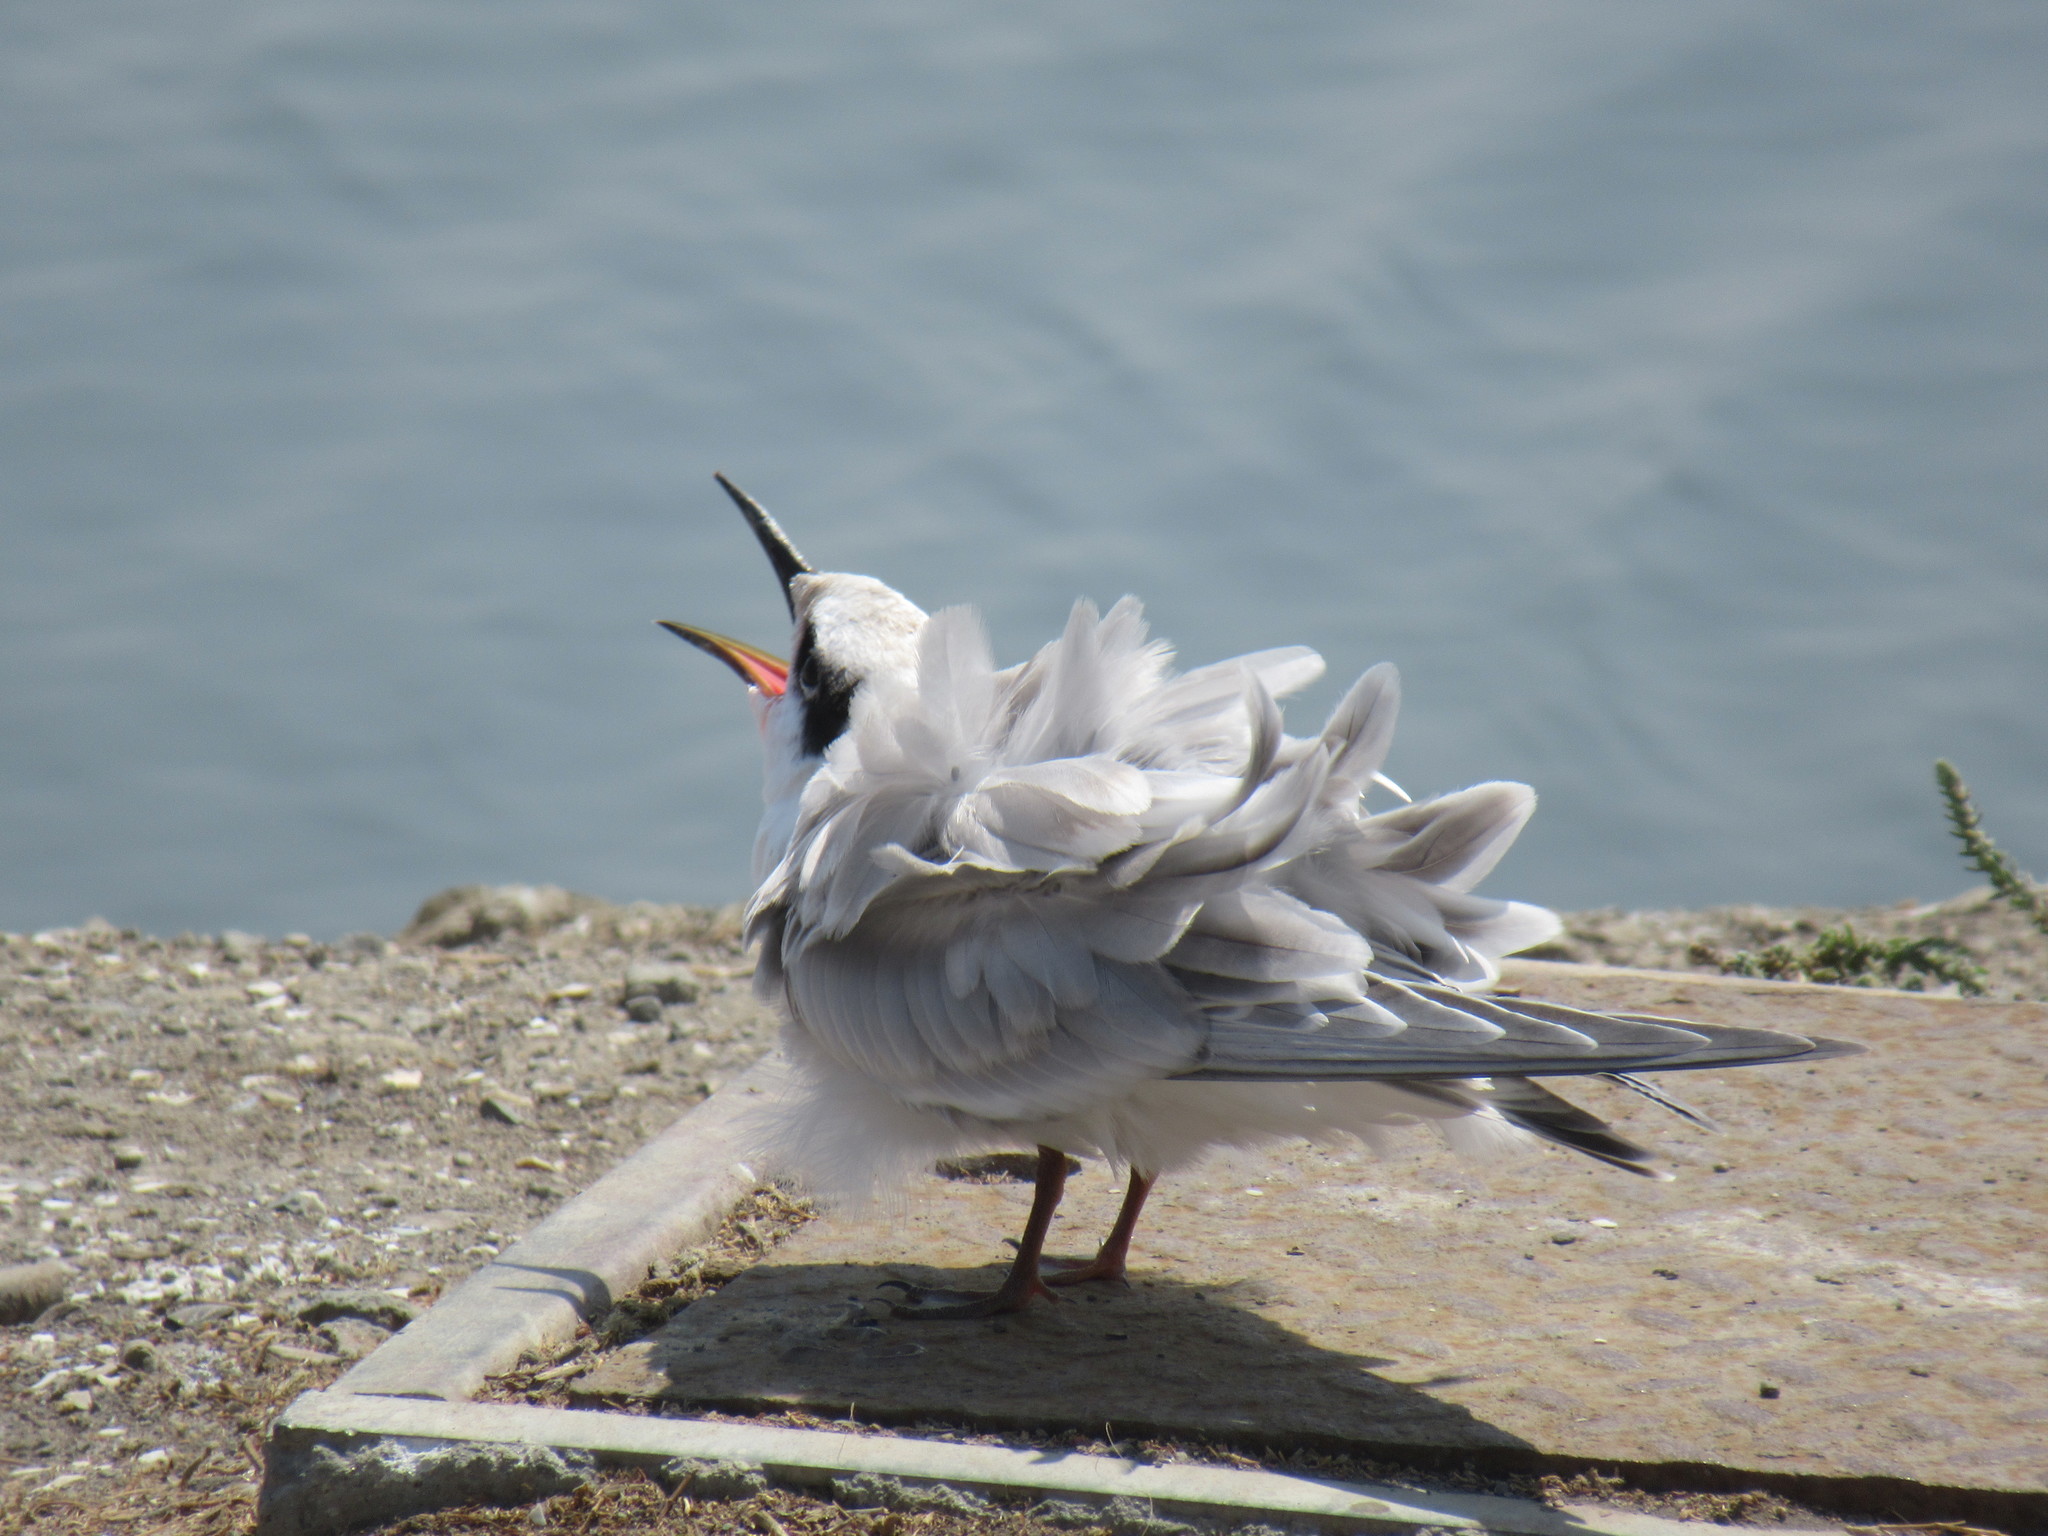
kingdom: Animalia
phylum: Chordata
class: Aves
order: Charadriiformes
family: Laridae
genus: Sterna
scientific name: Sterna forsteri
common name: Forster's tern
